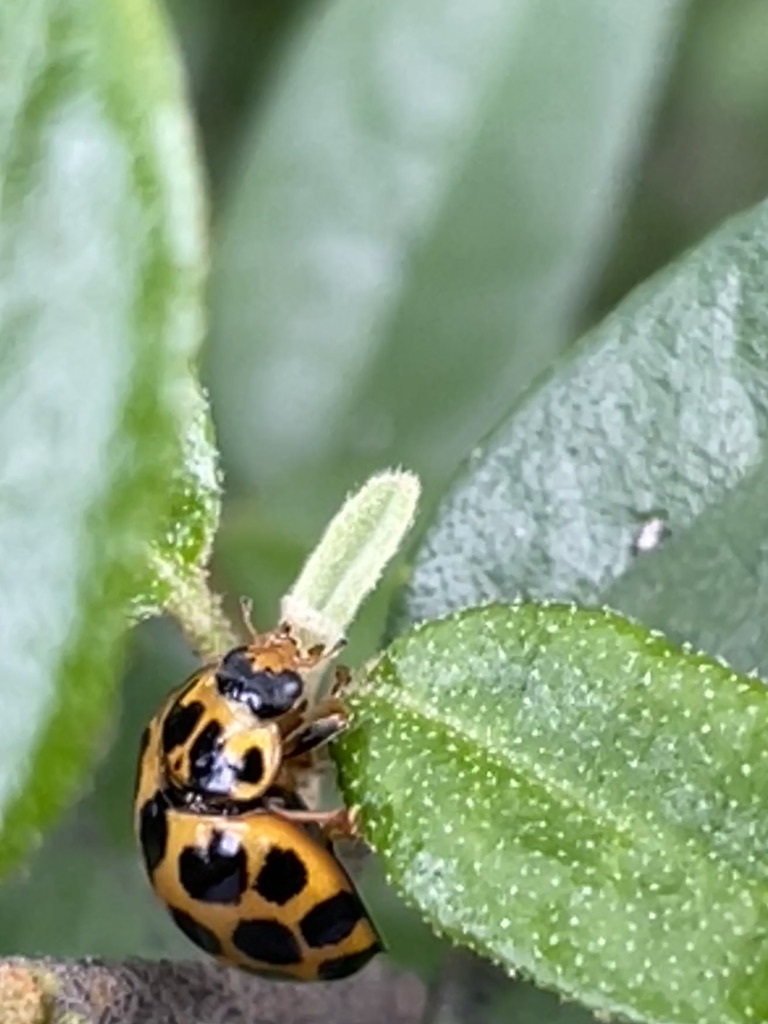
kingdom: Animalia
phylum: Arthropoda
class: Insecta
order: Coleoptera
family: Coccinellidae
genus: Harmonia
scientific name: Harmonia conformis
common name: Common spotted ladybird beetle
